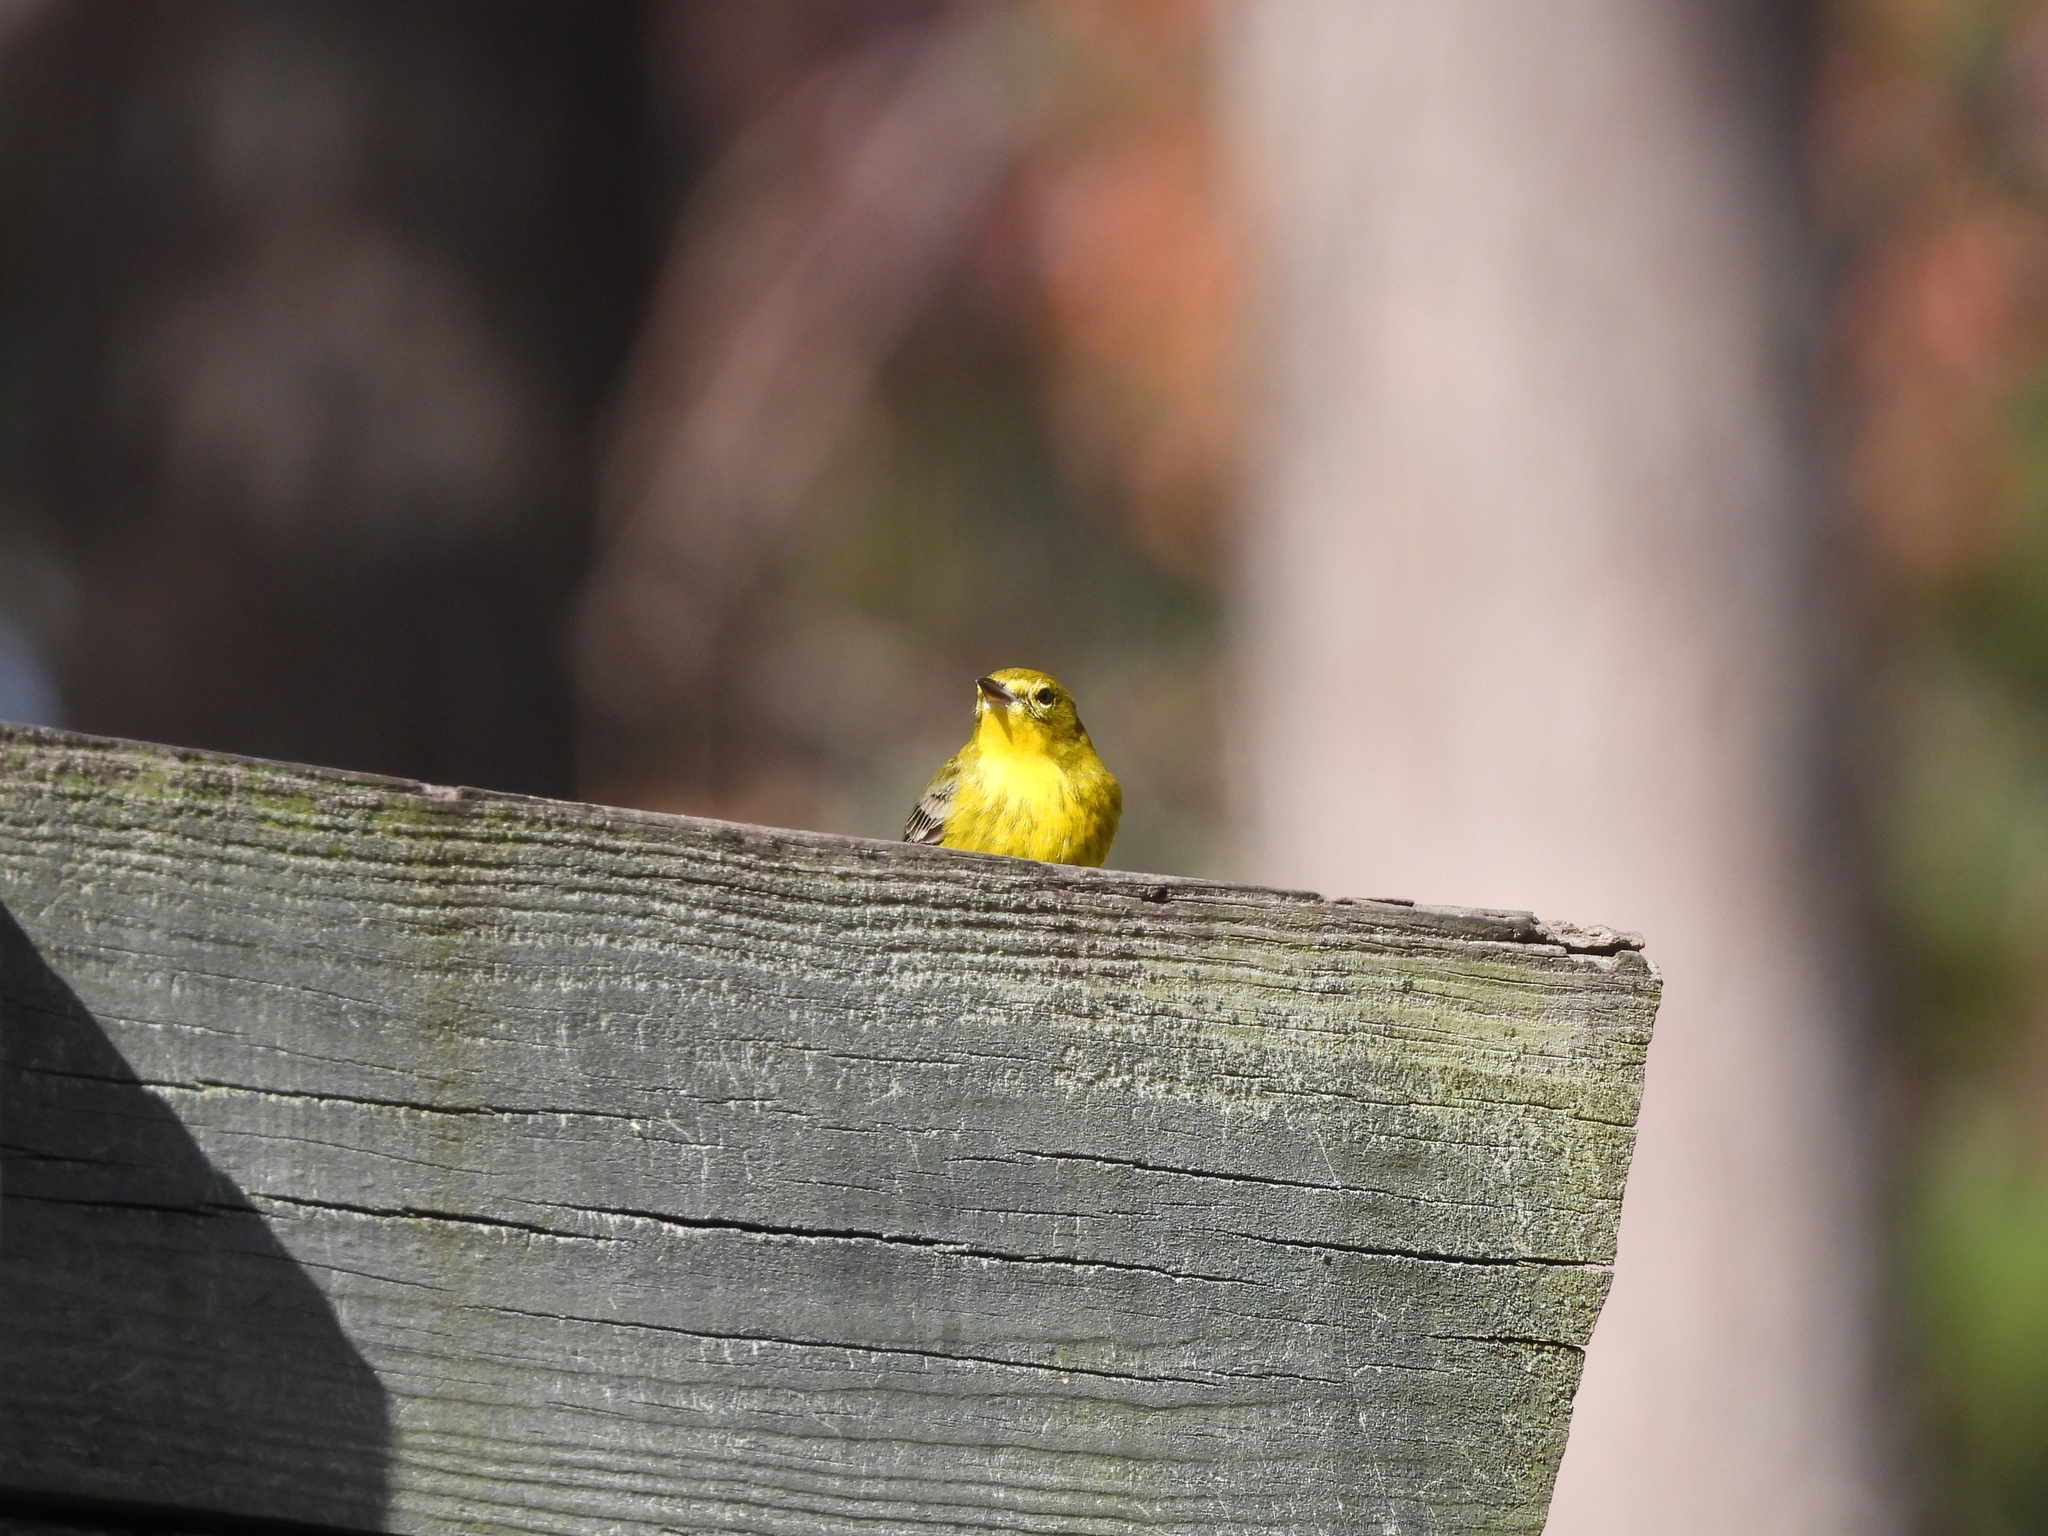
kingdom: Animalia
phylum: Chordata
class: Aves
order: Passeriformes
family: Parulidae
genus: Setophaga
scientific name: Setophaga pinus
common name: Pine warbler
